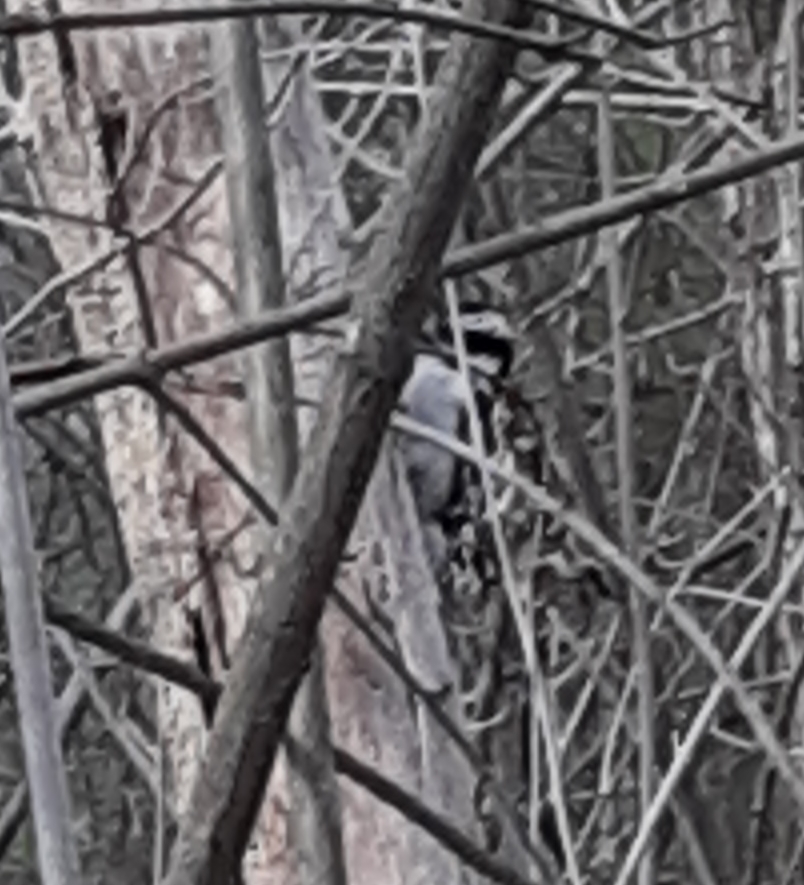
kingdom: Animalia
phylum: Chordata
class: Aves
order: Piciformes
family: Picidae
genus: Dryobates
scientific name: Dryobates
